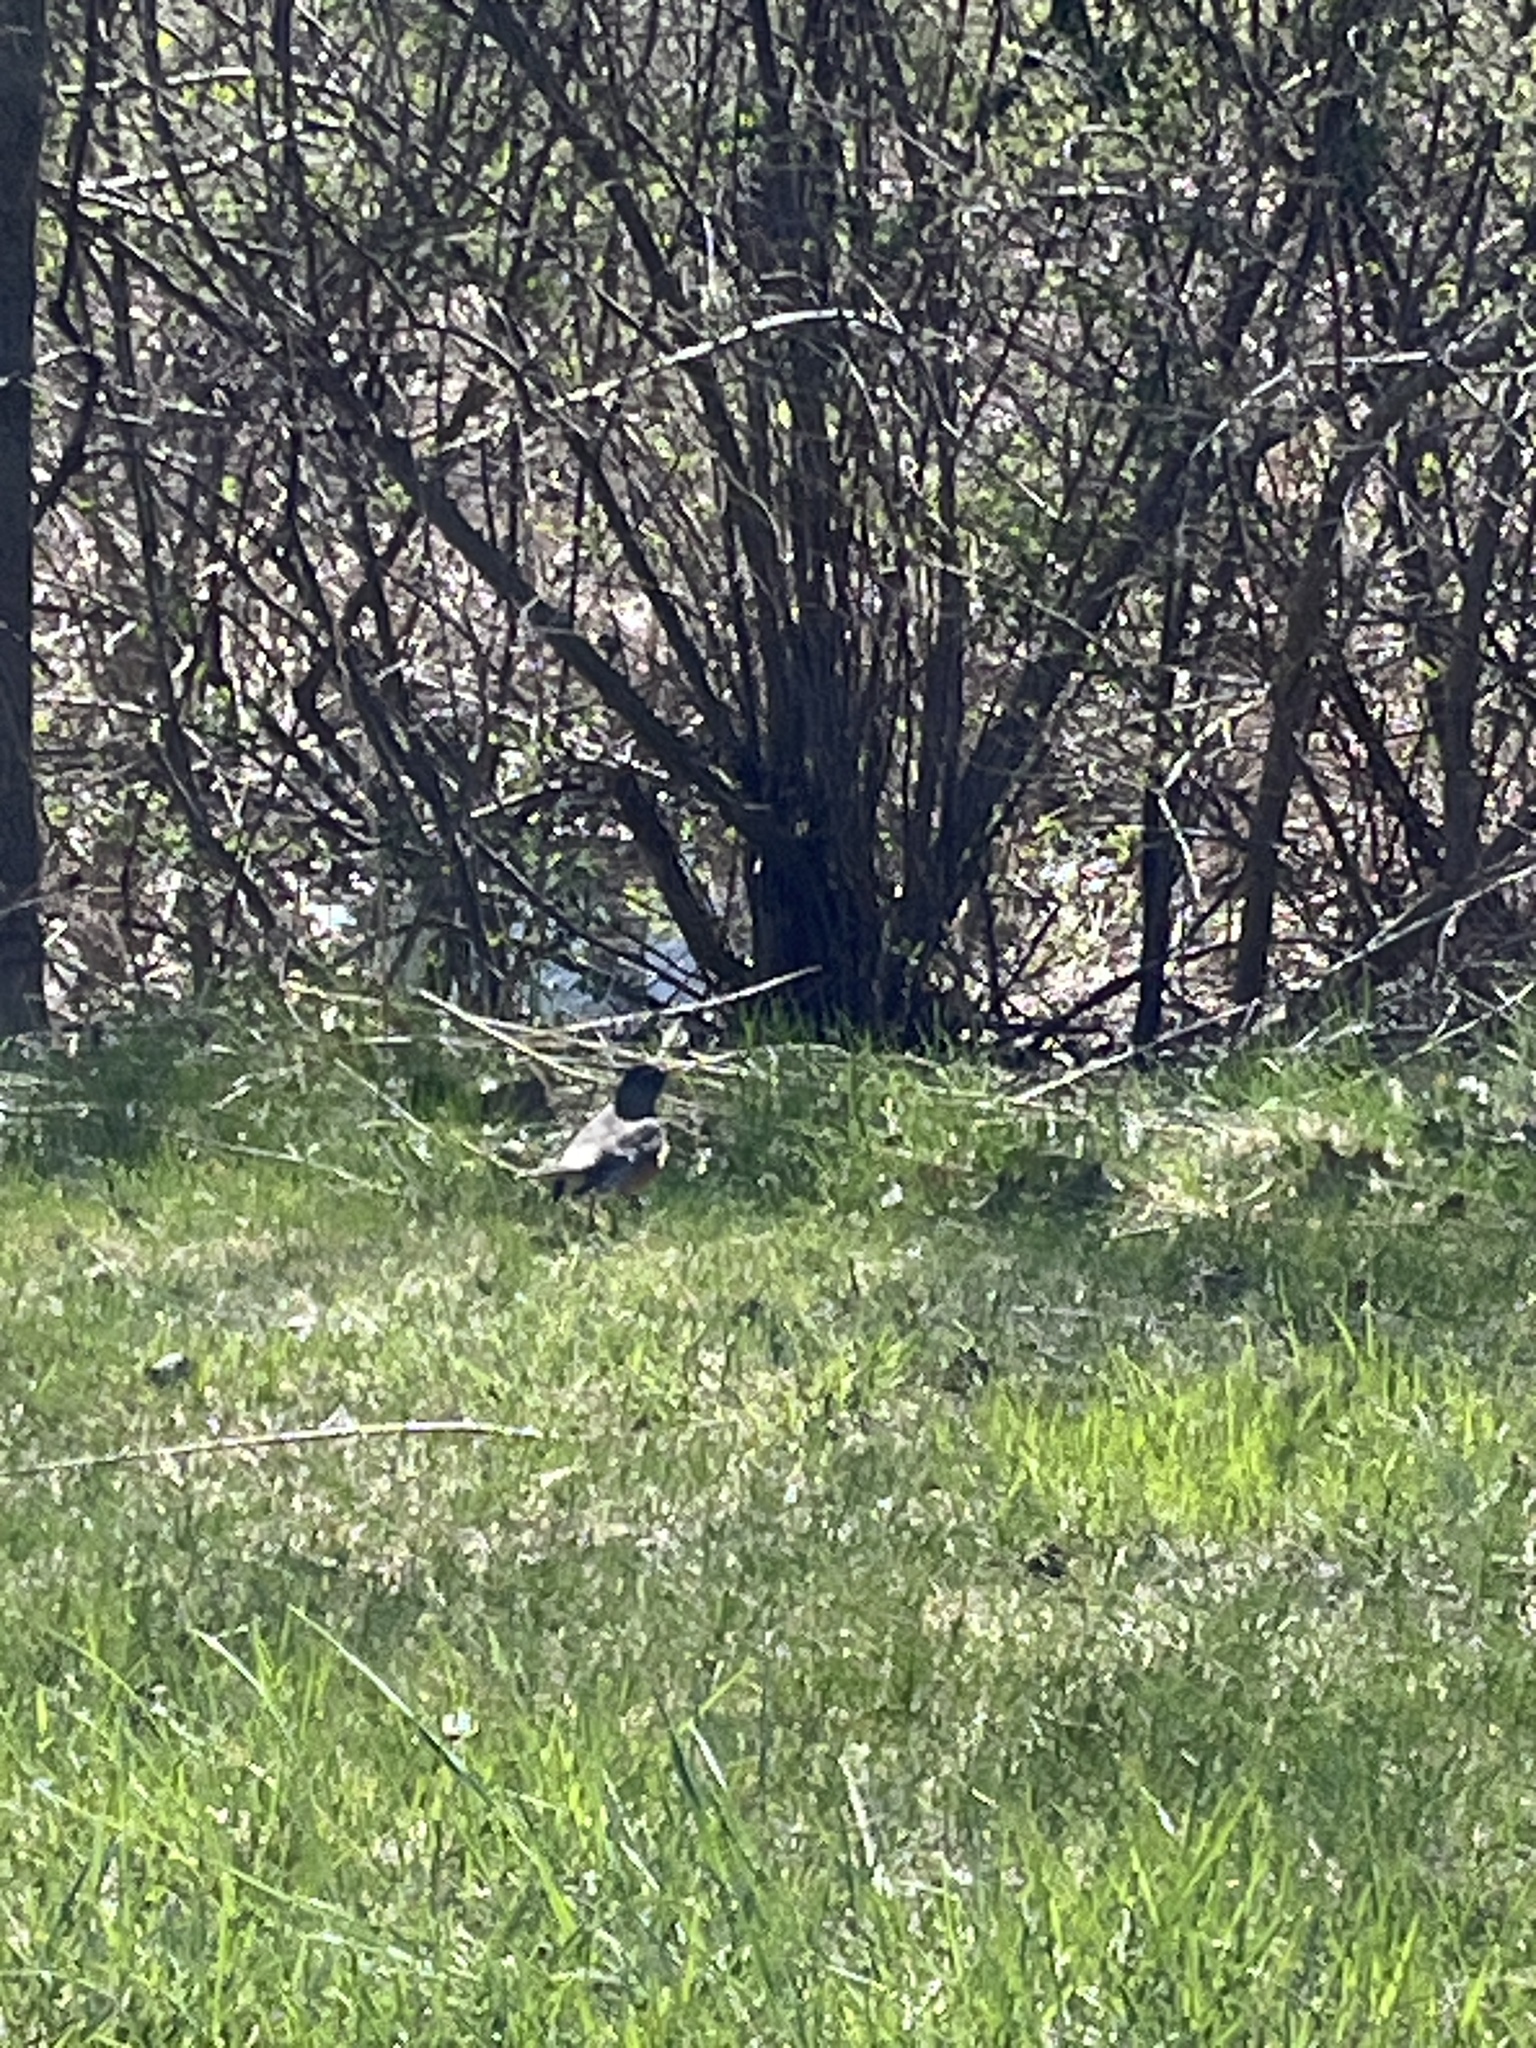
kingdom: Animalia
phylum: Chordata
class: Aves
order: Passeriformes
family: Turdidae
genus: Turdus
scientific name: Turdus migratorius
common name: American robin
